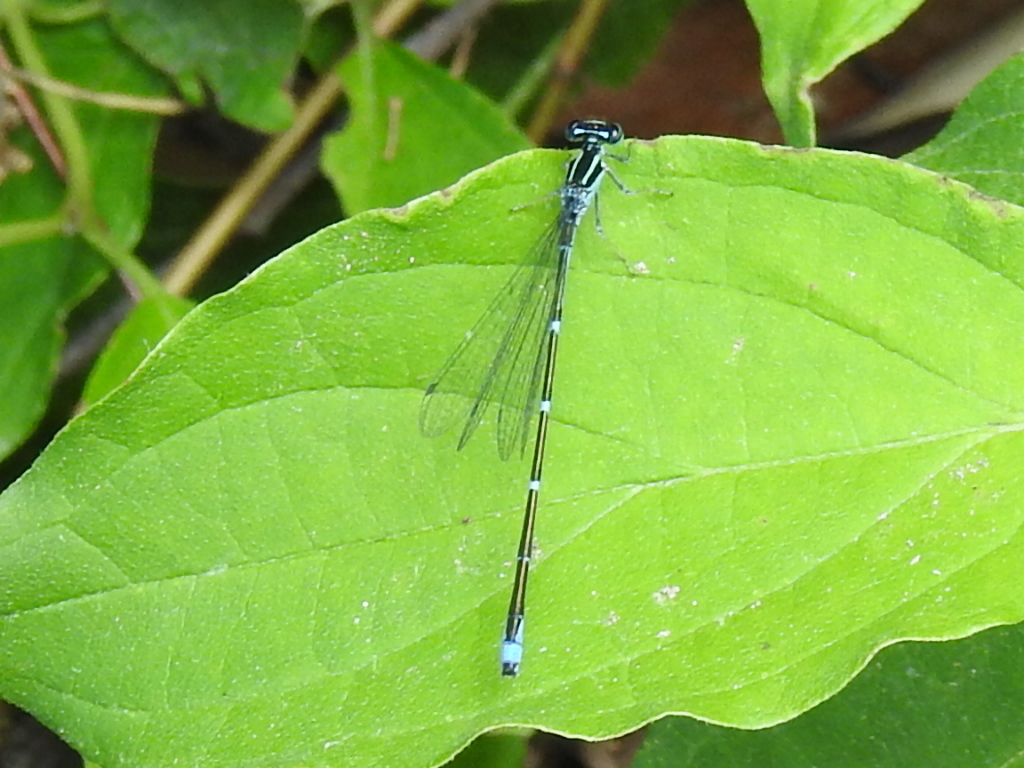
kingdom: Animalia
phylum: Arthropoda
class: Insecta
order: Odonata
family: Coenagrionidae
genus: Enallagma
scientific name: Enallagma exsulans
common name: Stream bluet
